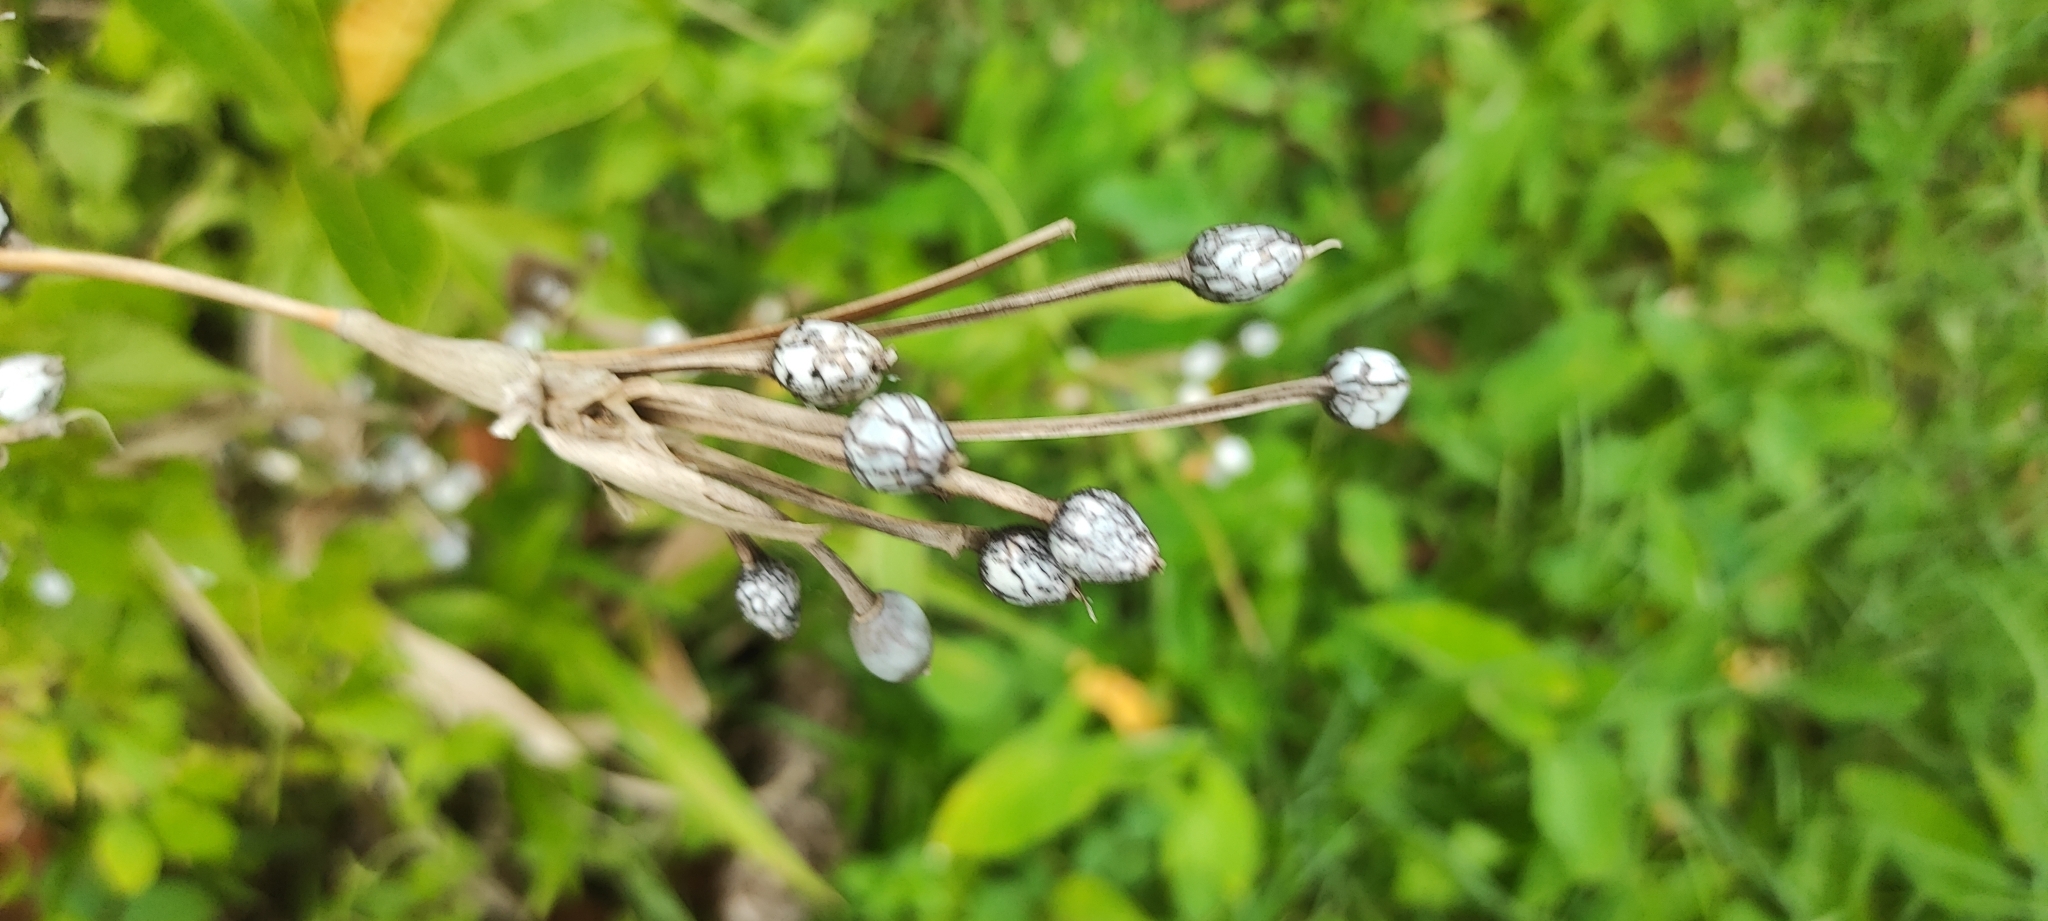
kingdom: Plantae
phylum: Tracheophyta
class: Liliopsida
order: Poales
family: Poaceae
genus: Coix
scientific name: Coix lacryma-jobi
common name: Job's tears
